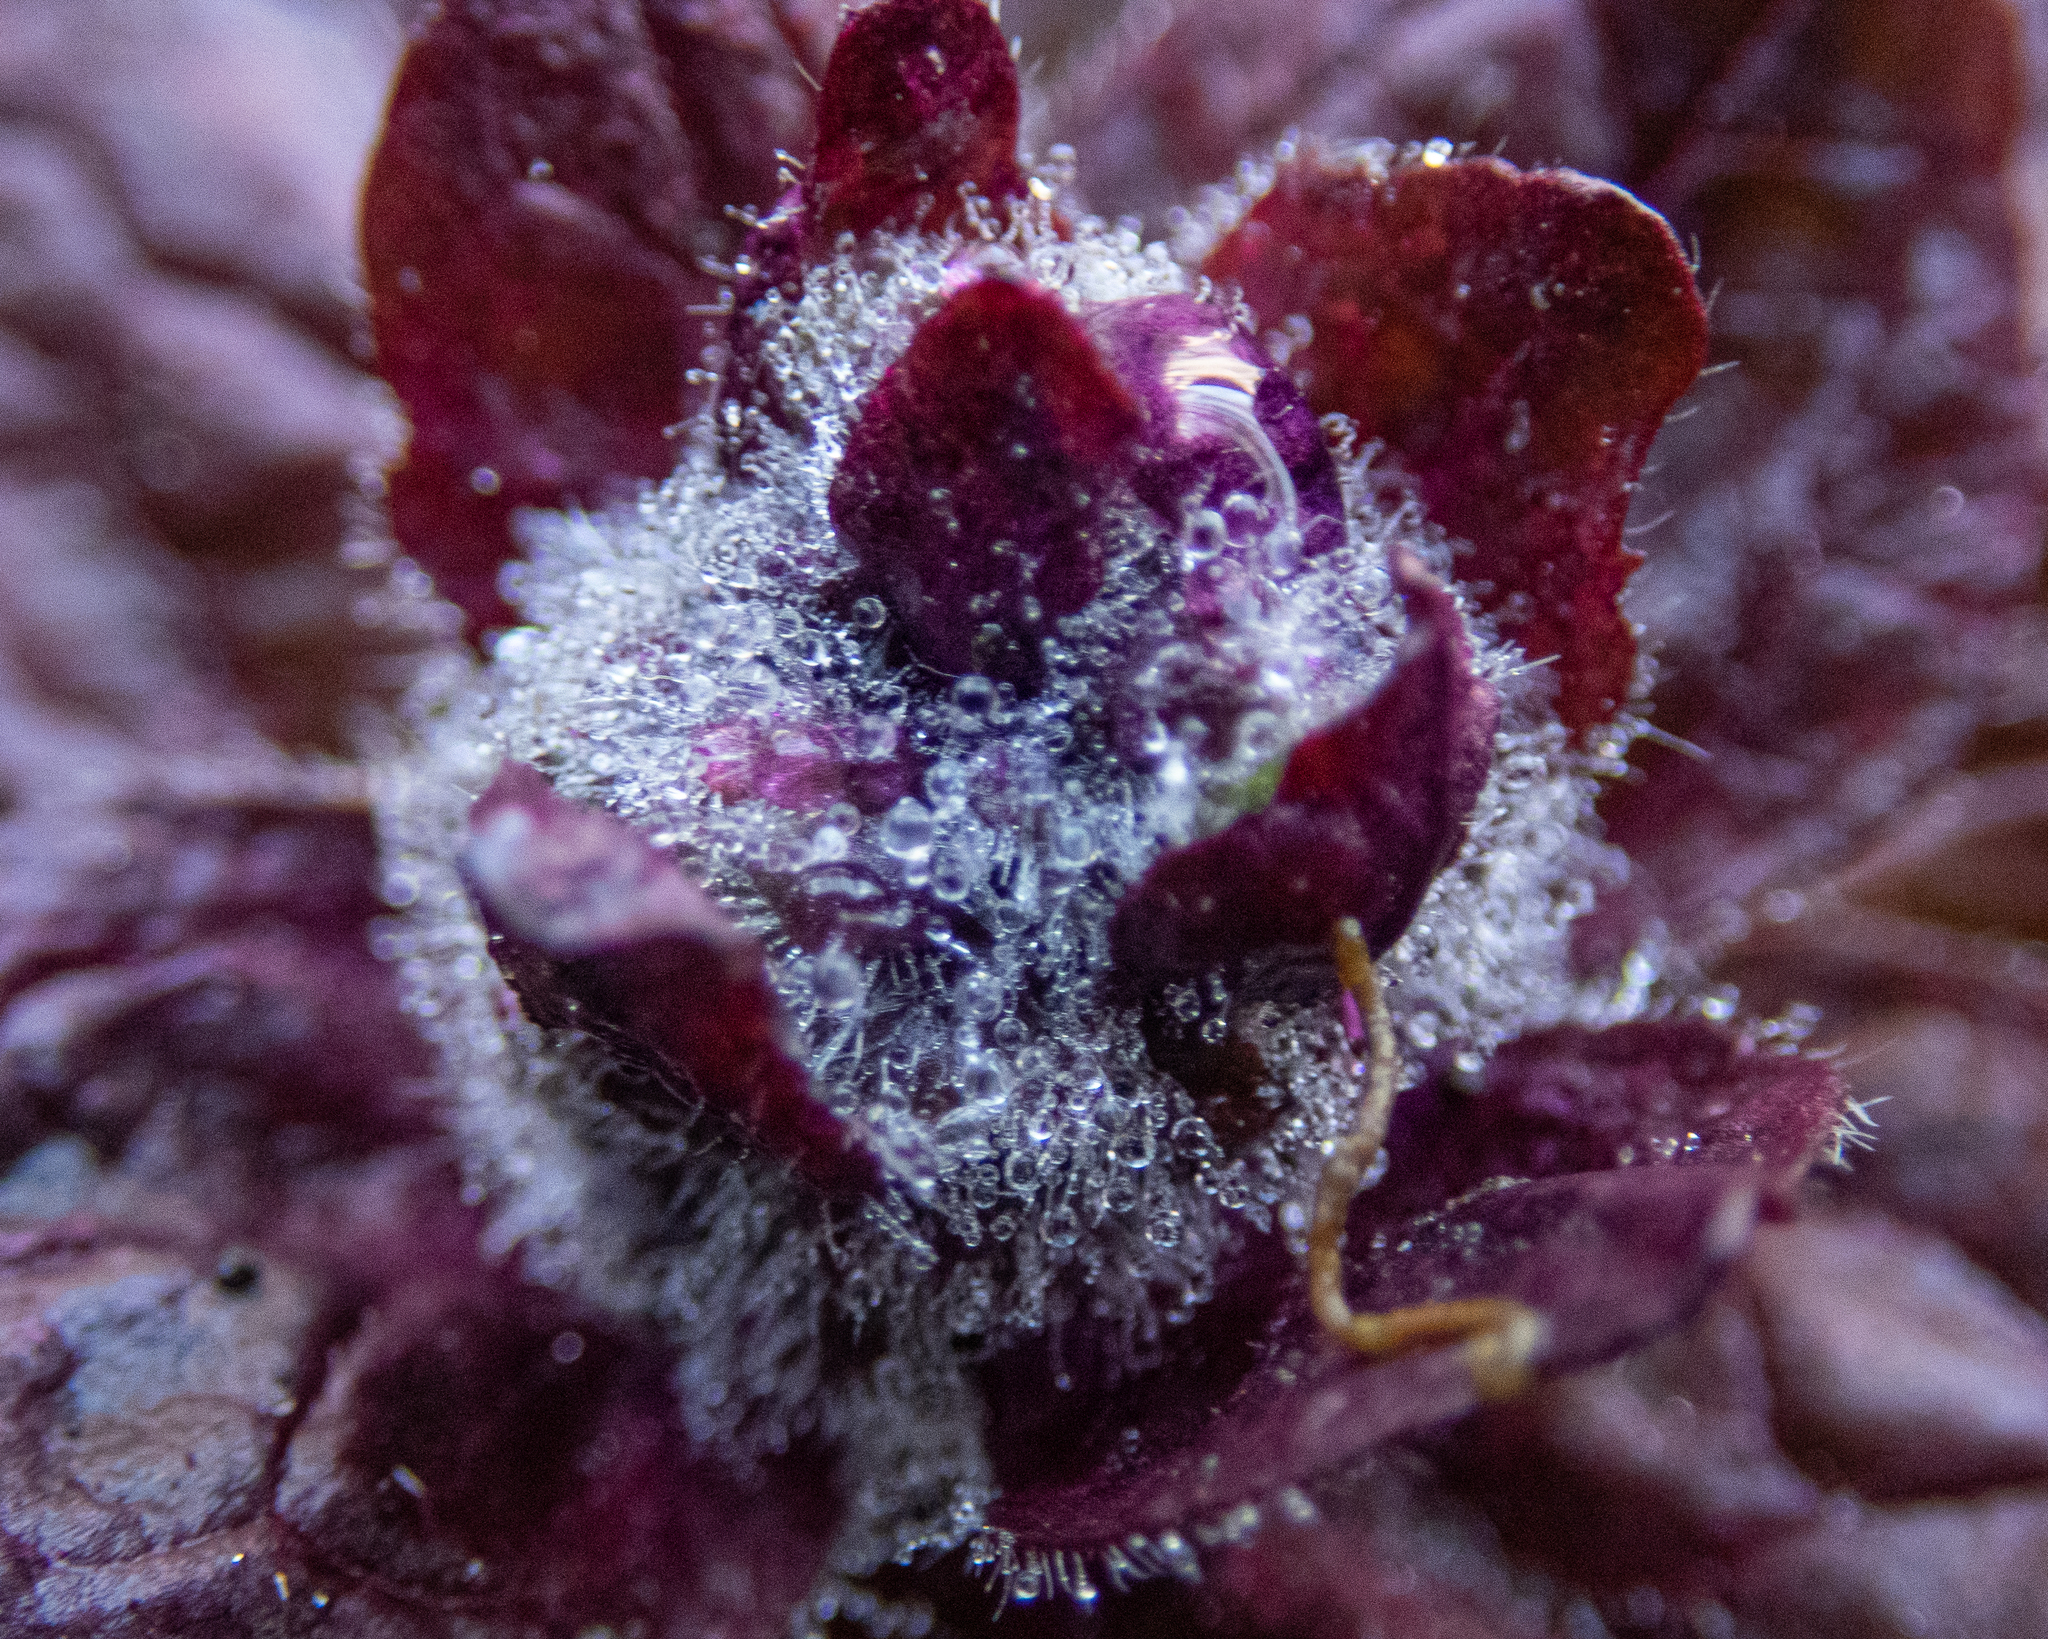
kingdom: Plantae
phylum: Tracheophyta
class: Magnoliopsida
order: Lamiales
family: Lamiaceae
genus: Ajuga
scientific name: Ajuga reptans
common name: Bugle
